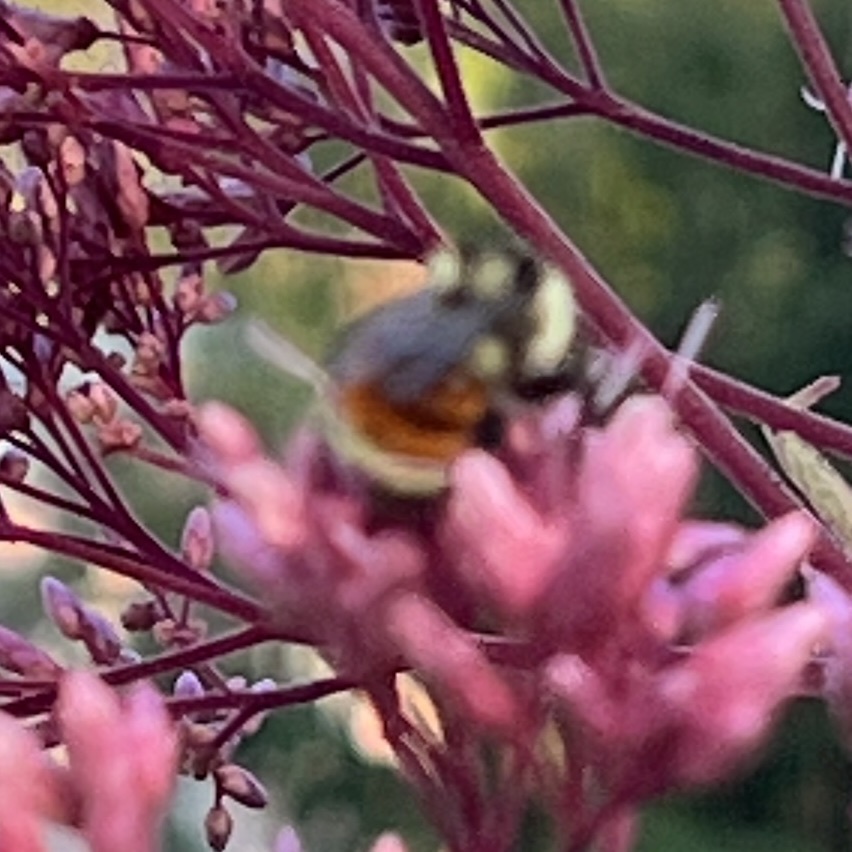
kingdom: Animalia
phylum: Arthropoda
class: Insecta
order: Hymenoptera
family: Apidae
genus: Bombus
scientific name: Bombus ternarius
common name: Tri-colored bumble bee
